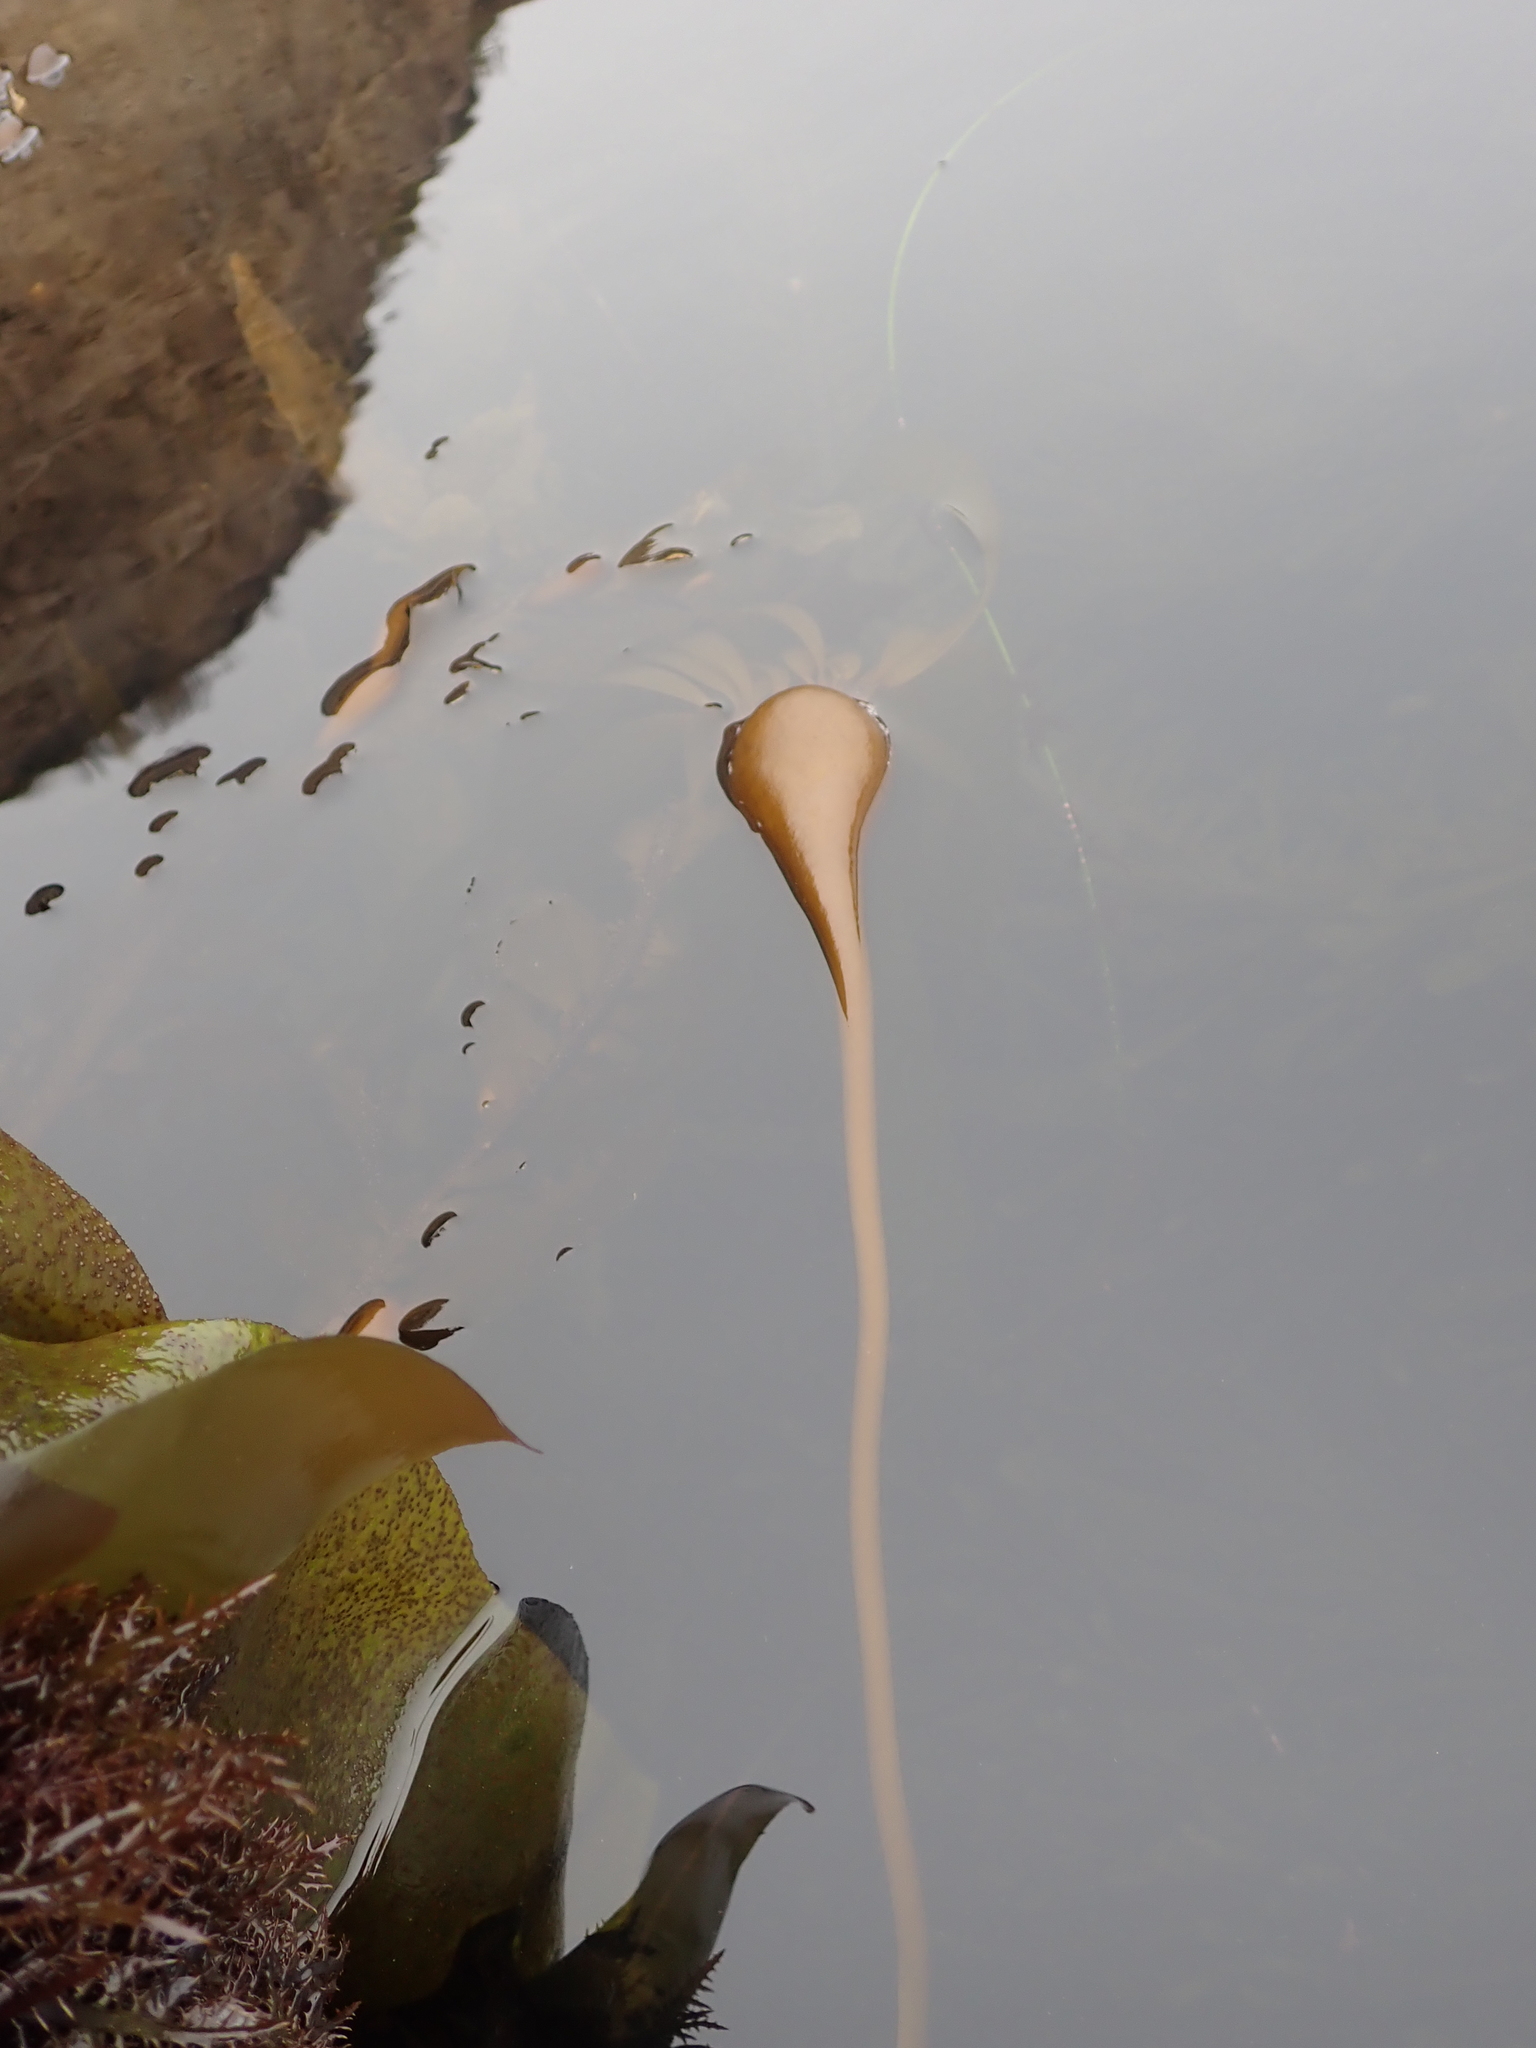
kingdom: Chromista
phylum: Ochrophyta
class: Phaeophyceae
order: Laminariales
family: Laminariaceae
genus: Nereocystis
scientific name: Nereocystis luetkeana
